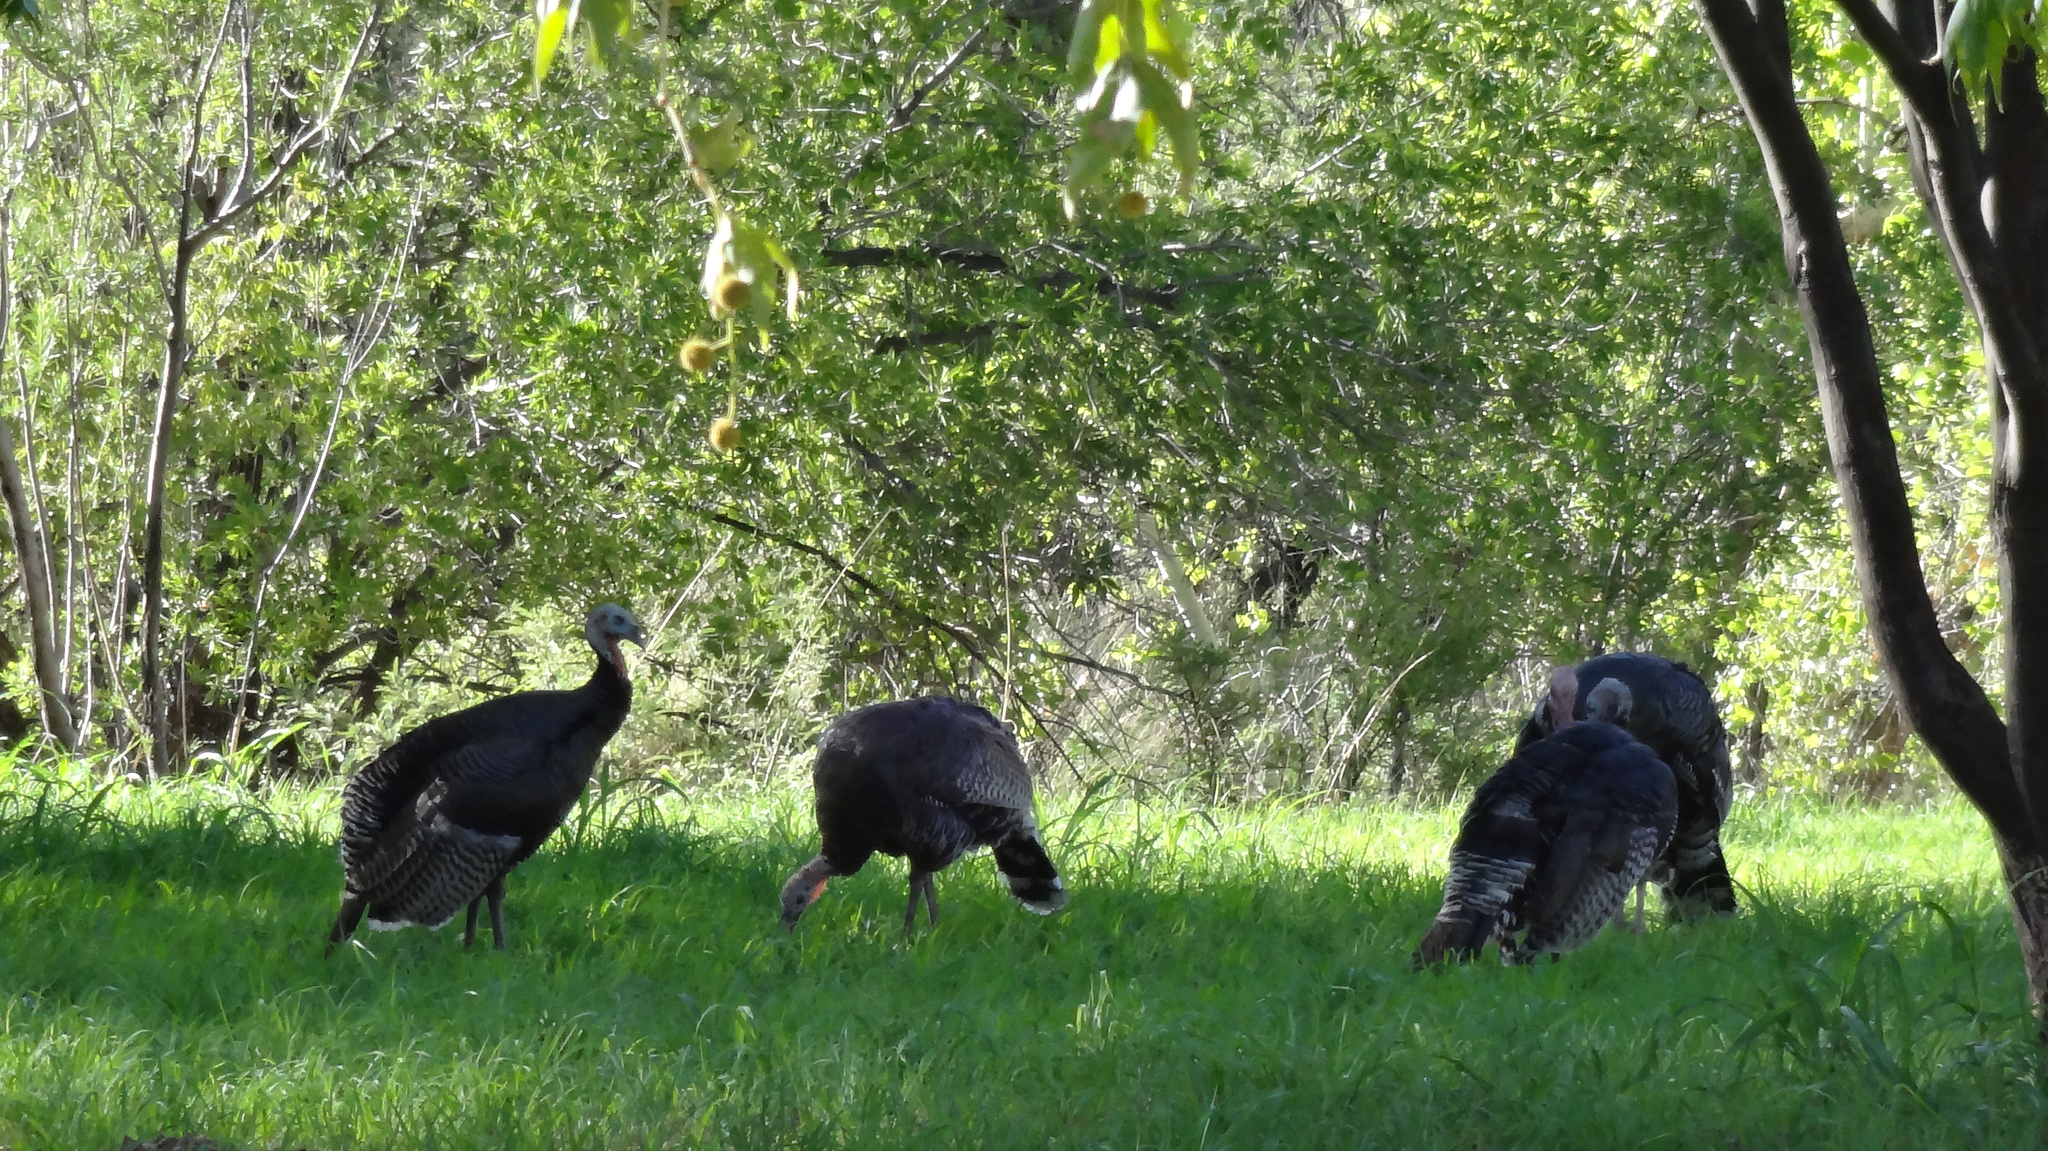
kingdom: Animalia
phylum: Chordata
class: Aves
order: Galliformes
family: Phasianidae
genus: Meleagris
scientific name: Meleagris gallopavo
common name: Wild turkey
